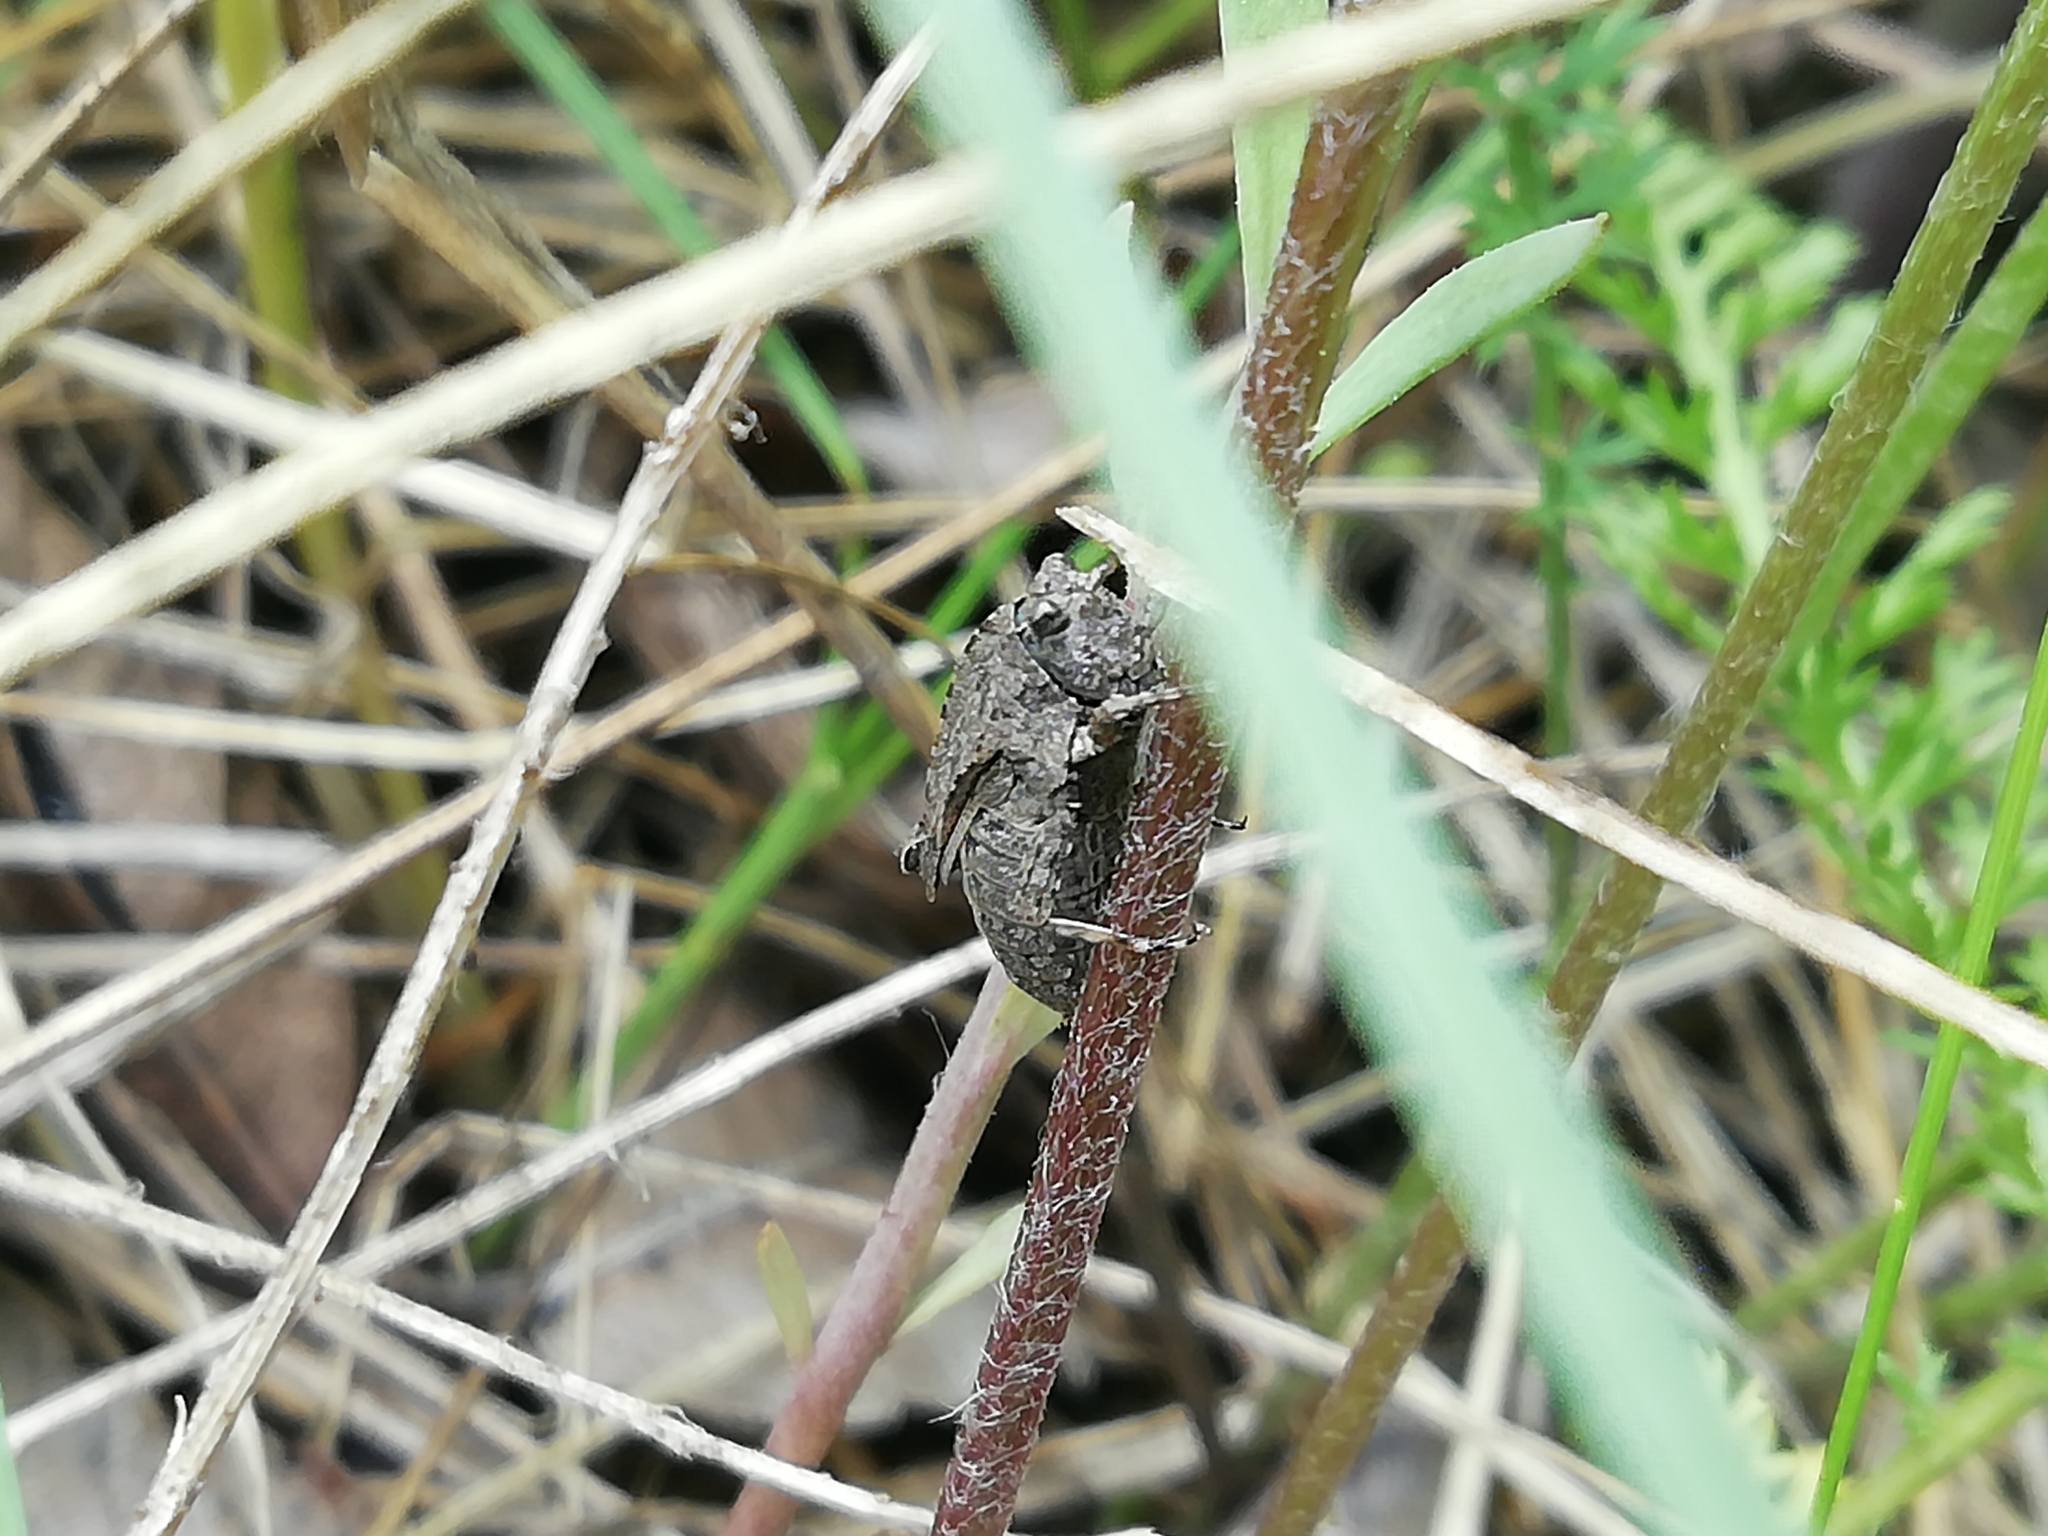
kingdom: Animalia
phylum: Arthropoda
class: Insecta
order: Orthoptera
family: Tetrigidae
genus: Tetrix
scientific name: Tetrix tenuicornis
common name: Long-horned groundhopper
